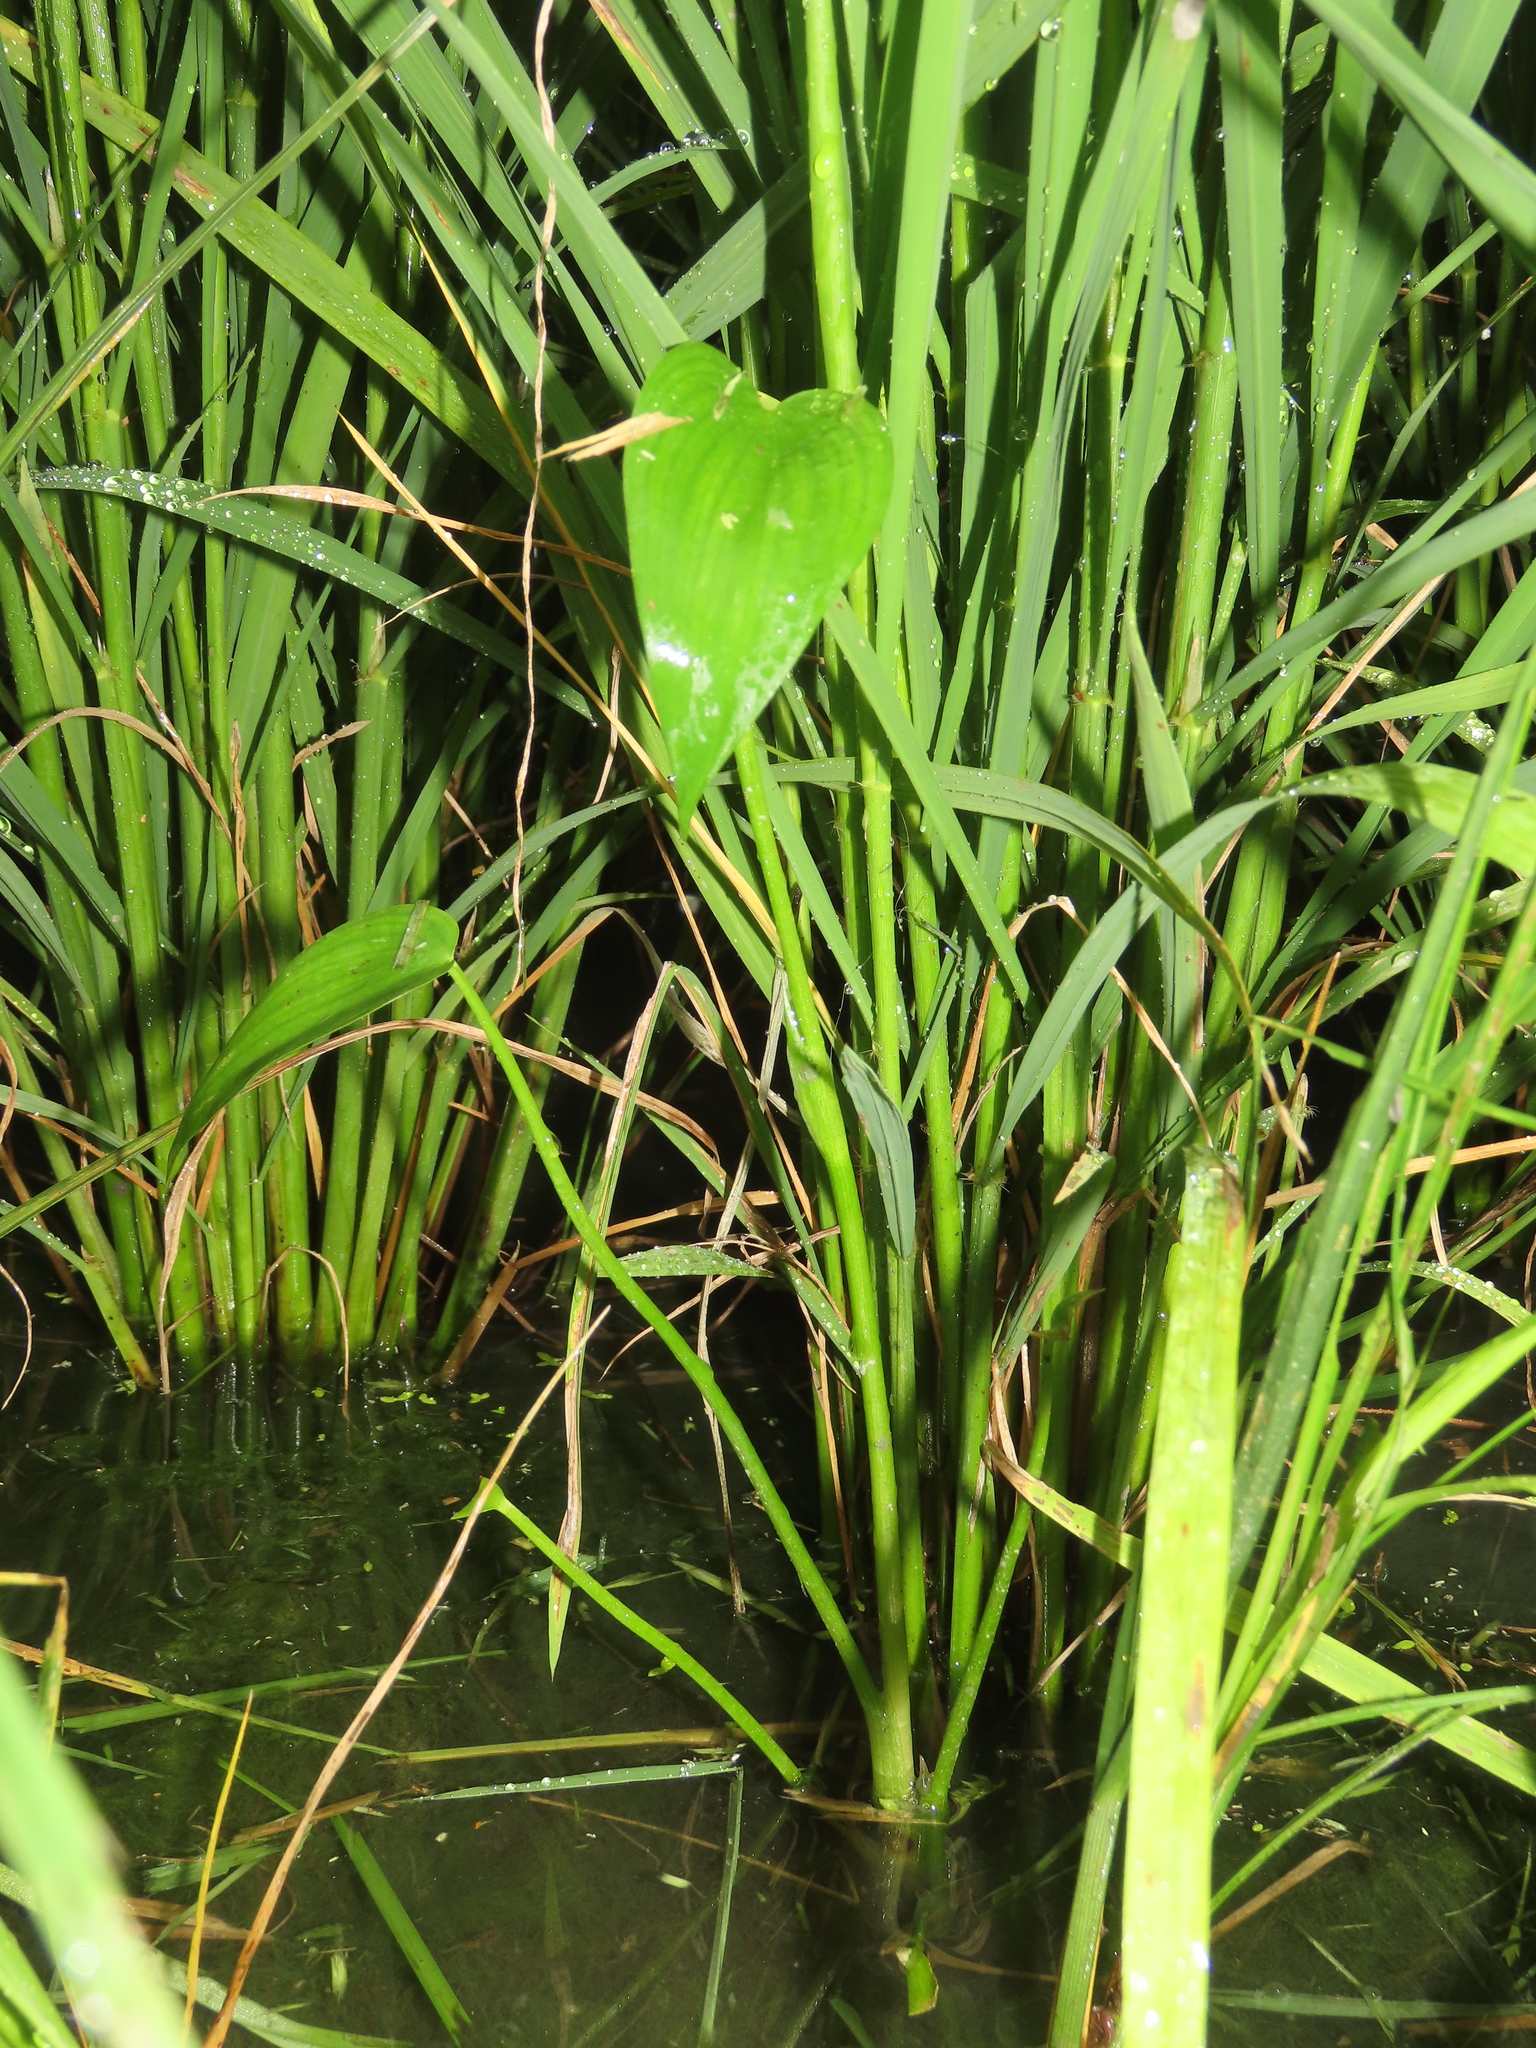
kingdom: Plantae
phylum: Tracheophyta
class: Liliopsida
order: Commelinales
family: Pontederiaceae
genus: Pontederia
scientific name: Pontederia vaginalis
